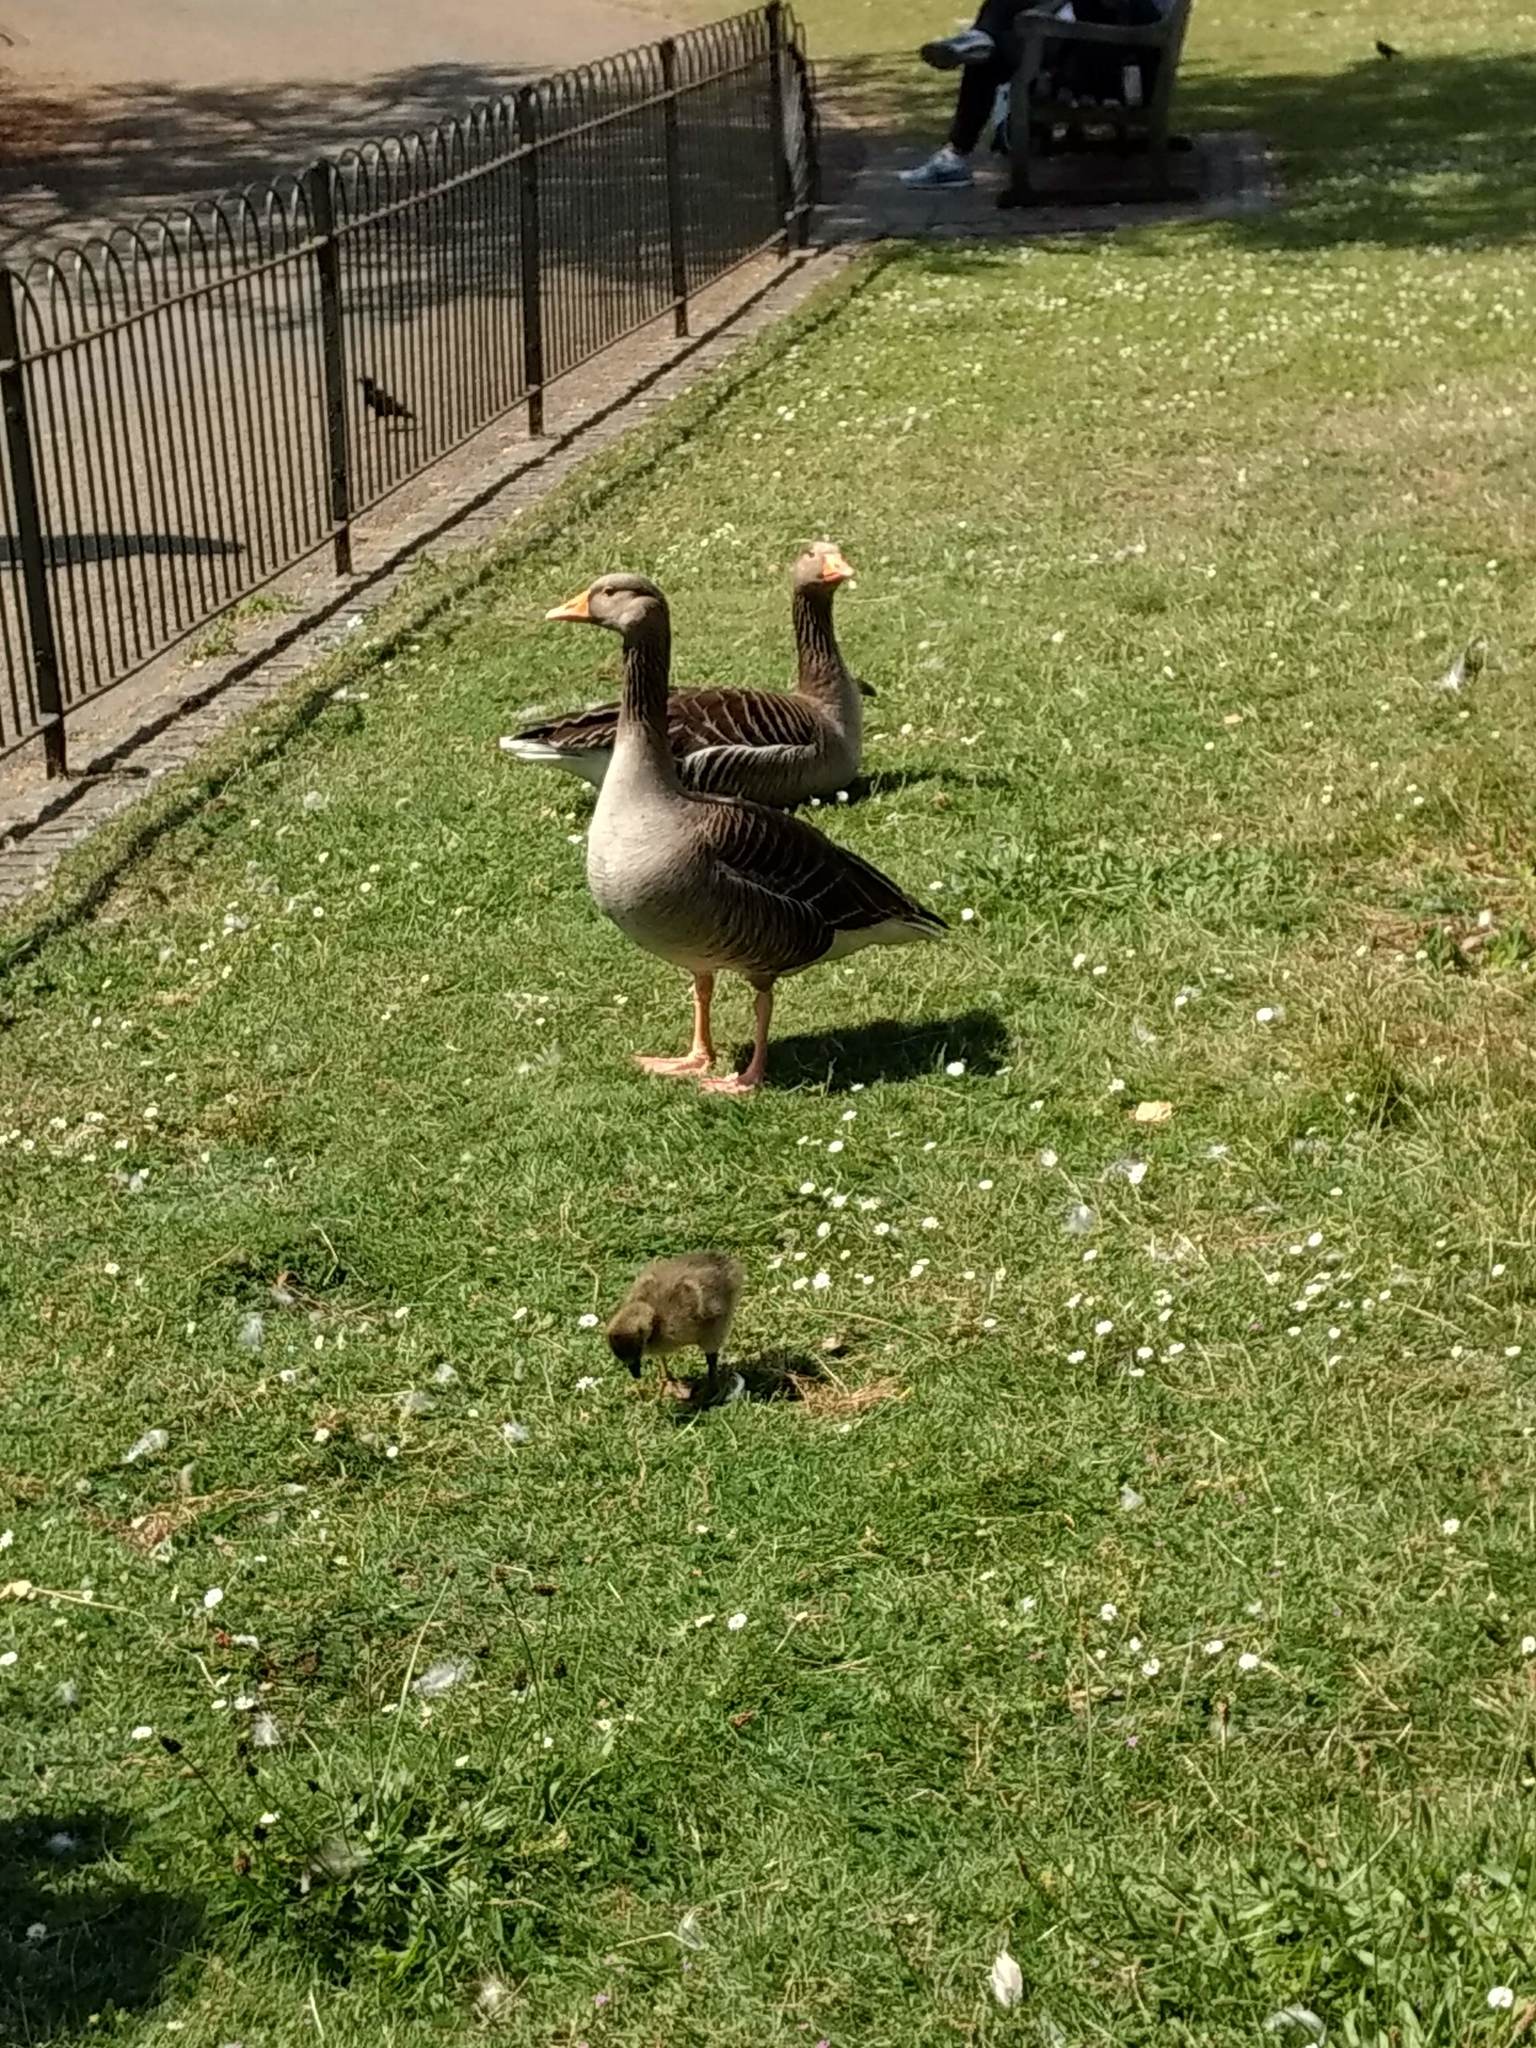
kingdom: Animalia
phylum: Chordata
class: Aves
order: Anseriformes
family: Anatidae
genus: Anser
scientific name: Anser anser
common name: Greylag goose
